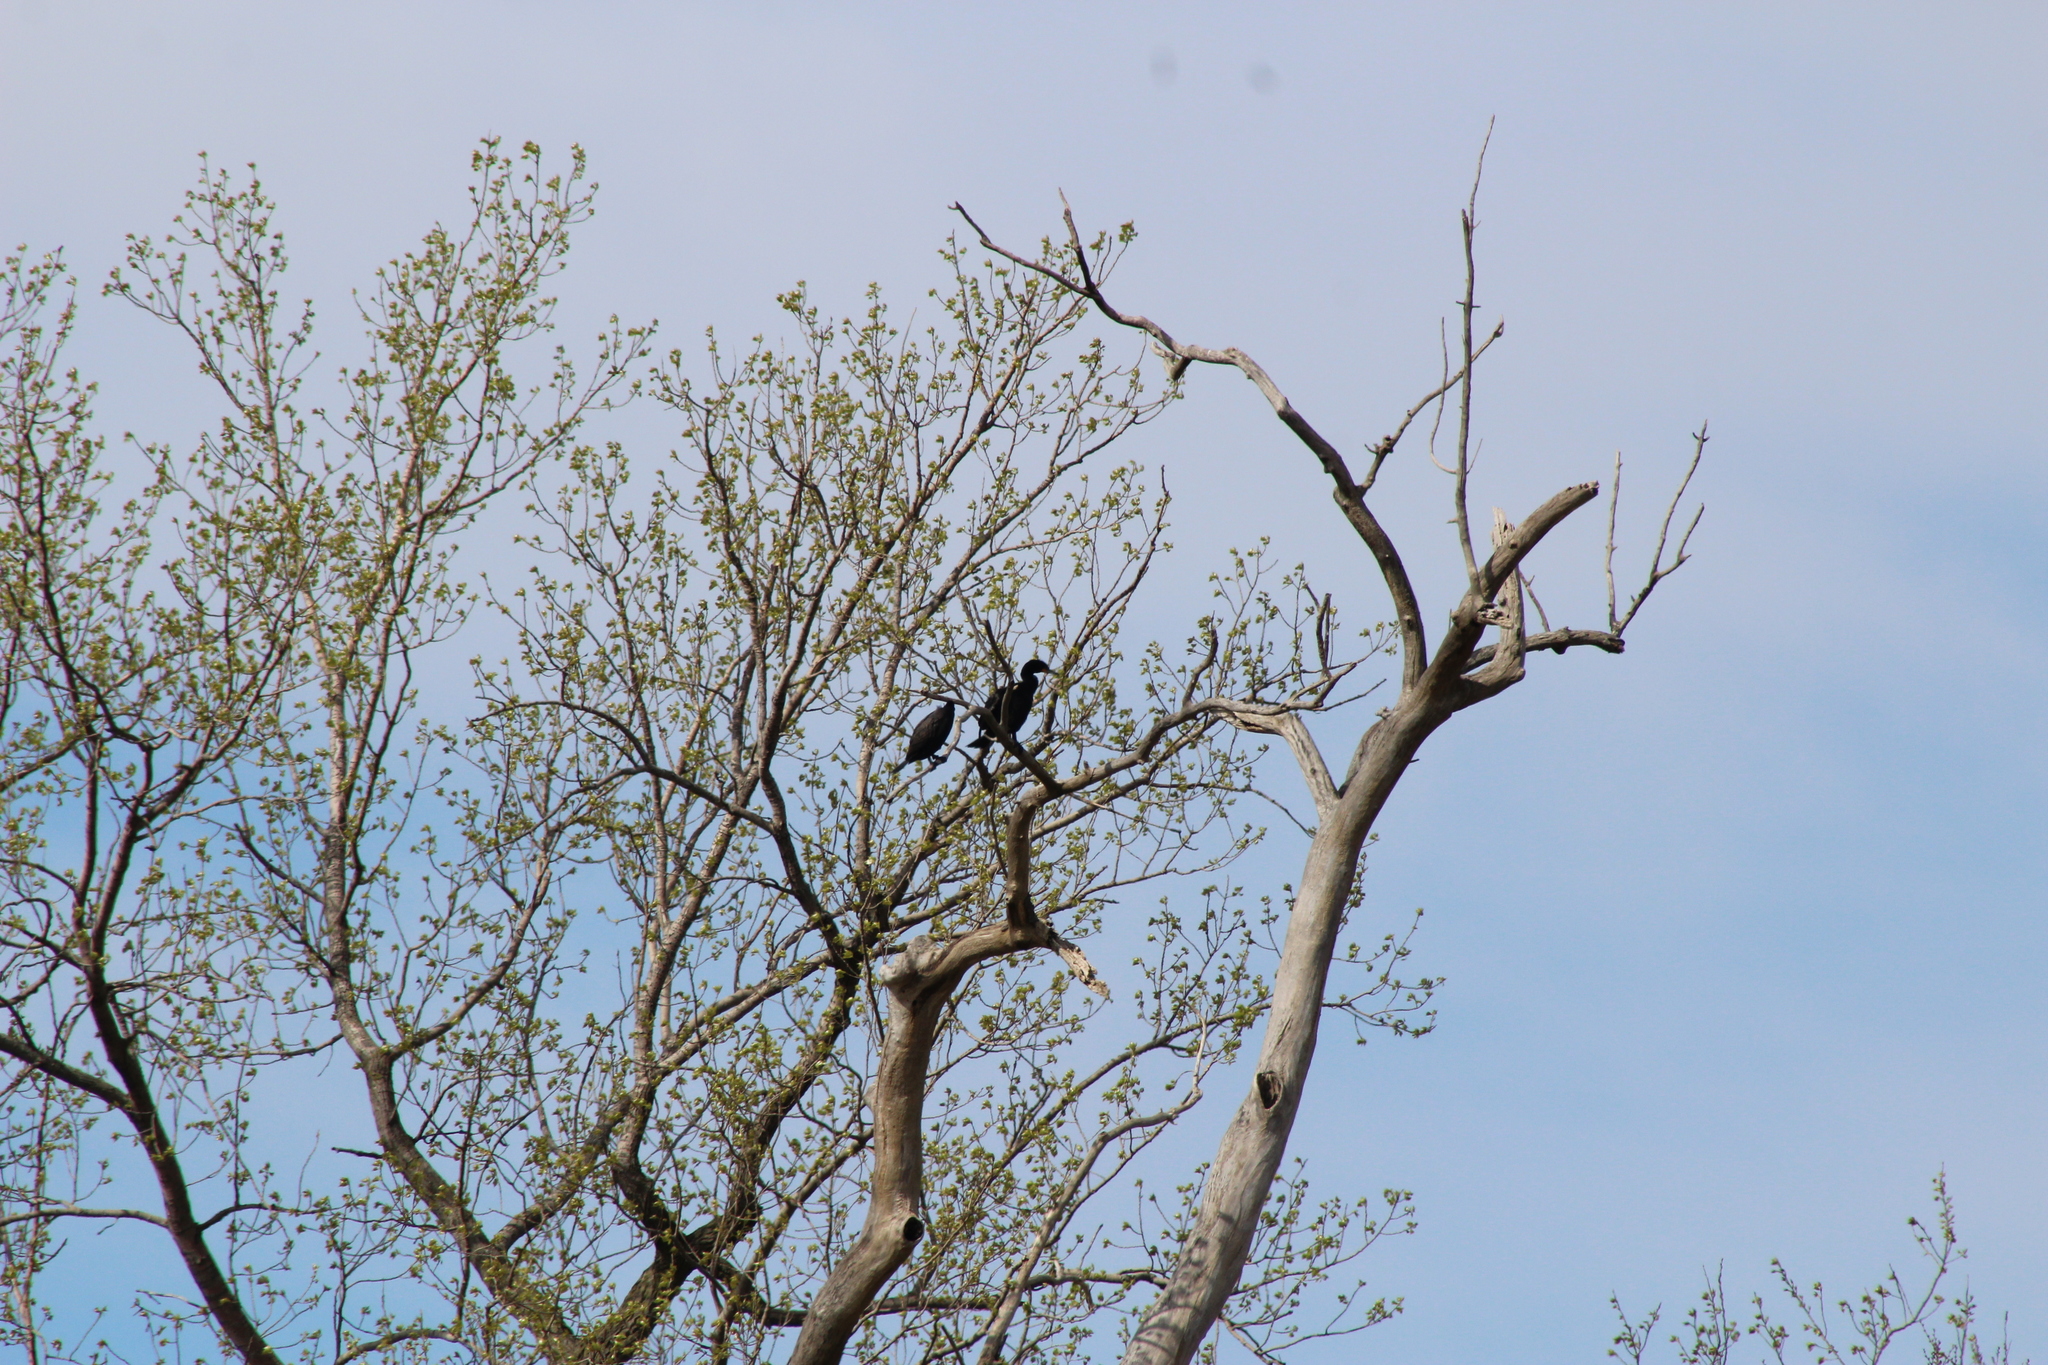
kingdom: Animalia
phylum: Chordata
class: Aves
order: Suliformes
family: Phalacrocoracidae
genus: Phalacrocorax
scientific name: Phalacrocorax auritus
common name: Double-crested cormorant
